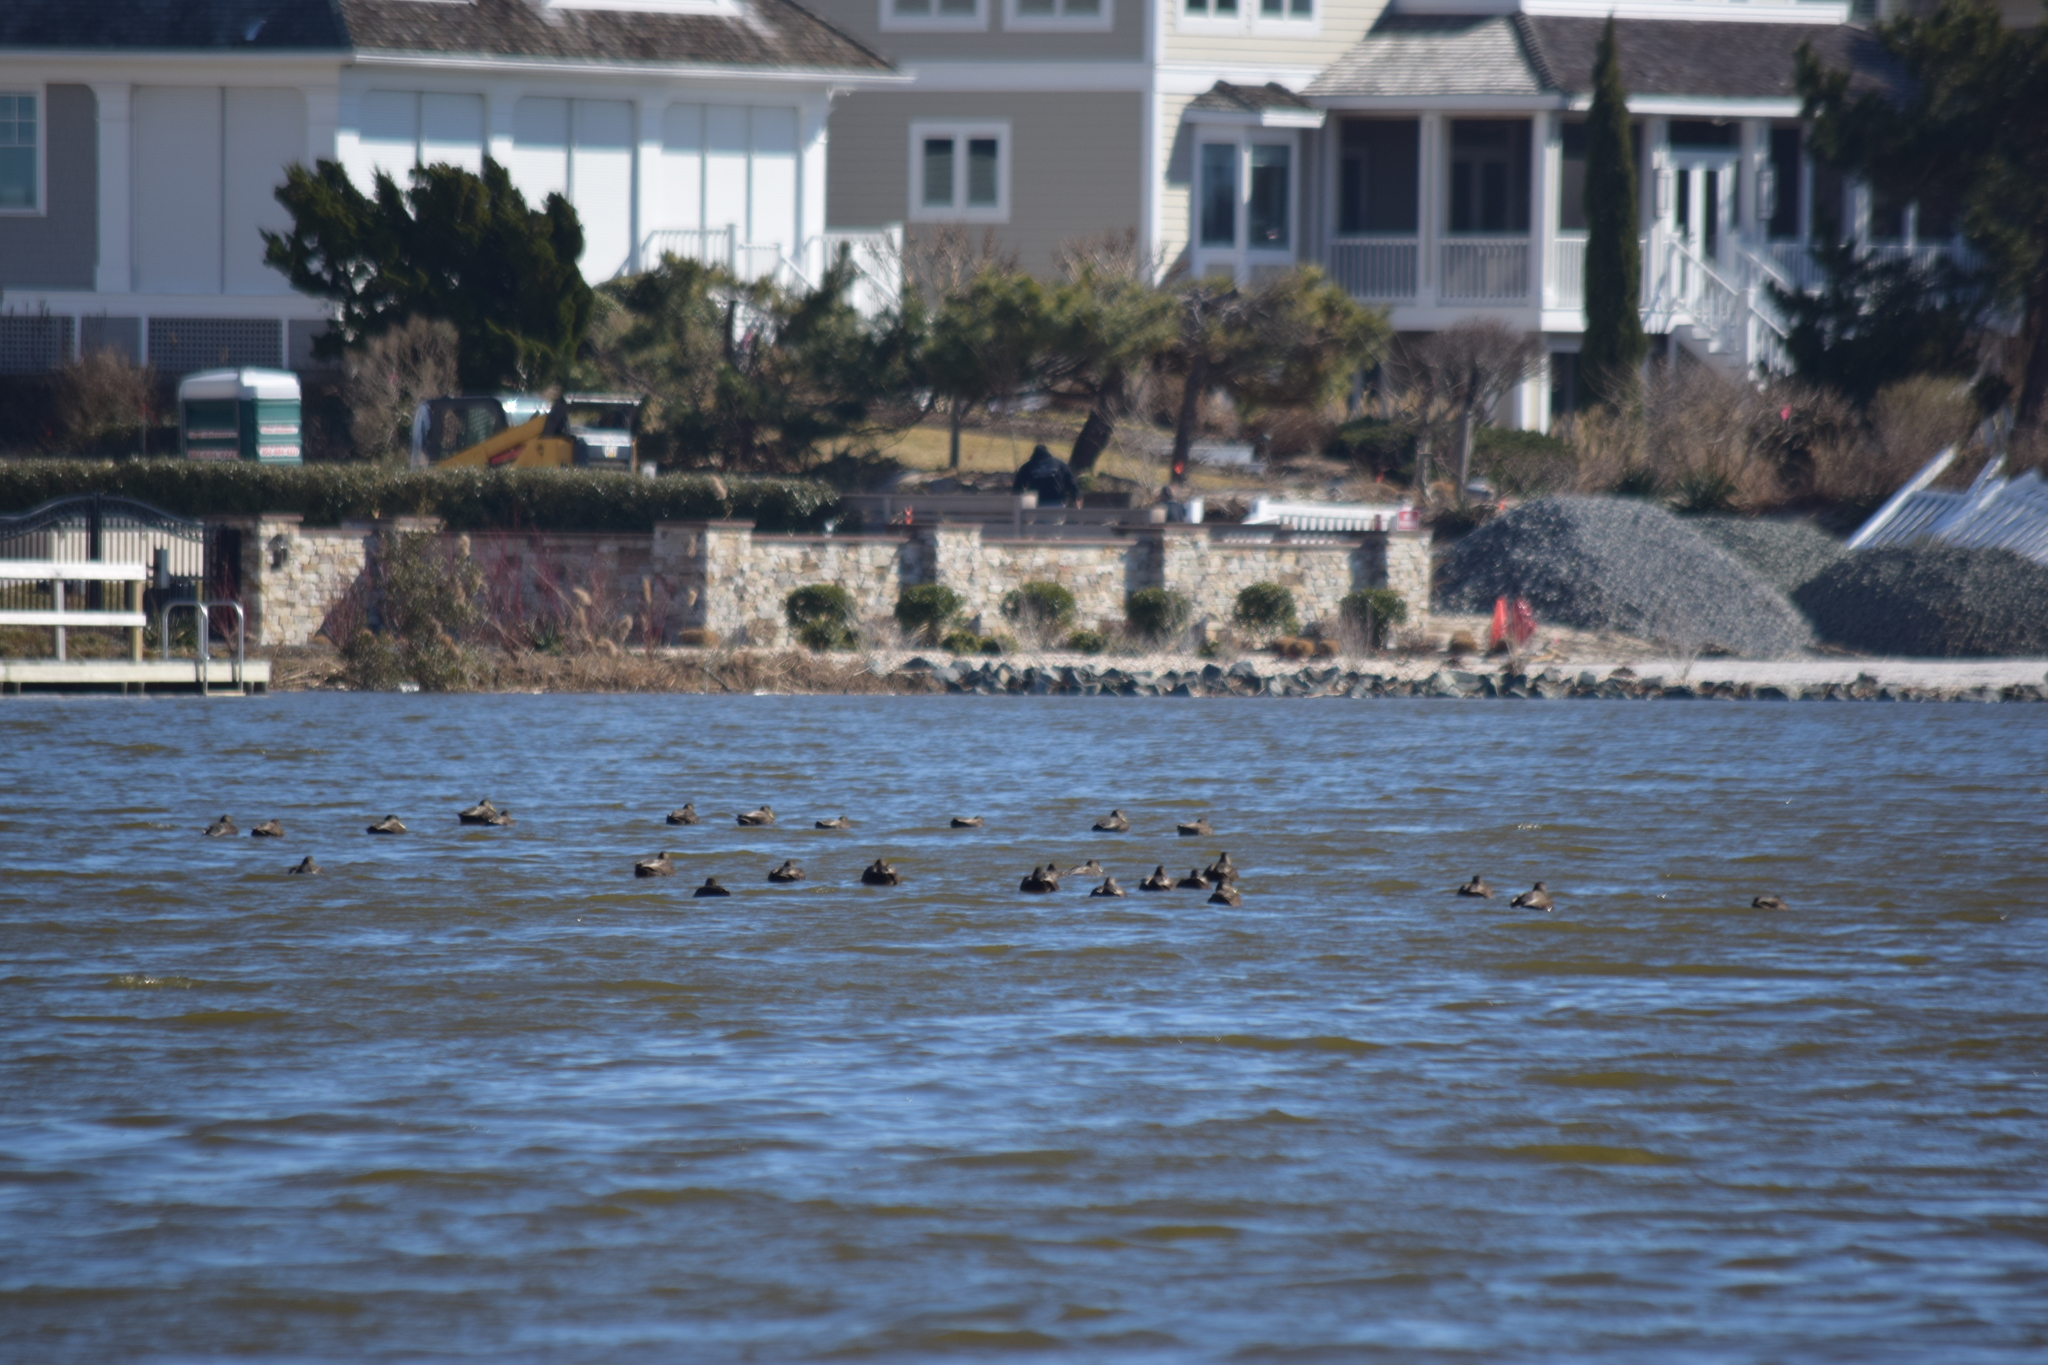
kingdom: Animalia
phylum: Chordata
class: Aves
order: Anseriformes
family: Anatidae
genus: Anas
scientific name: Anas rubripes
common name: American black duck
